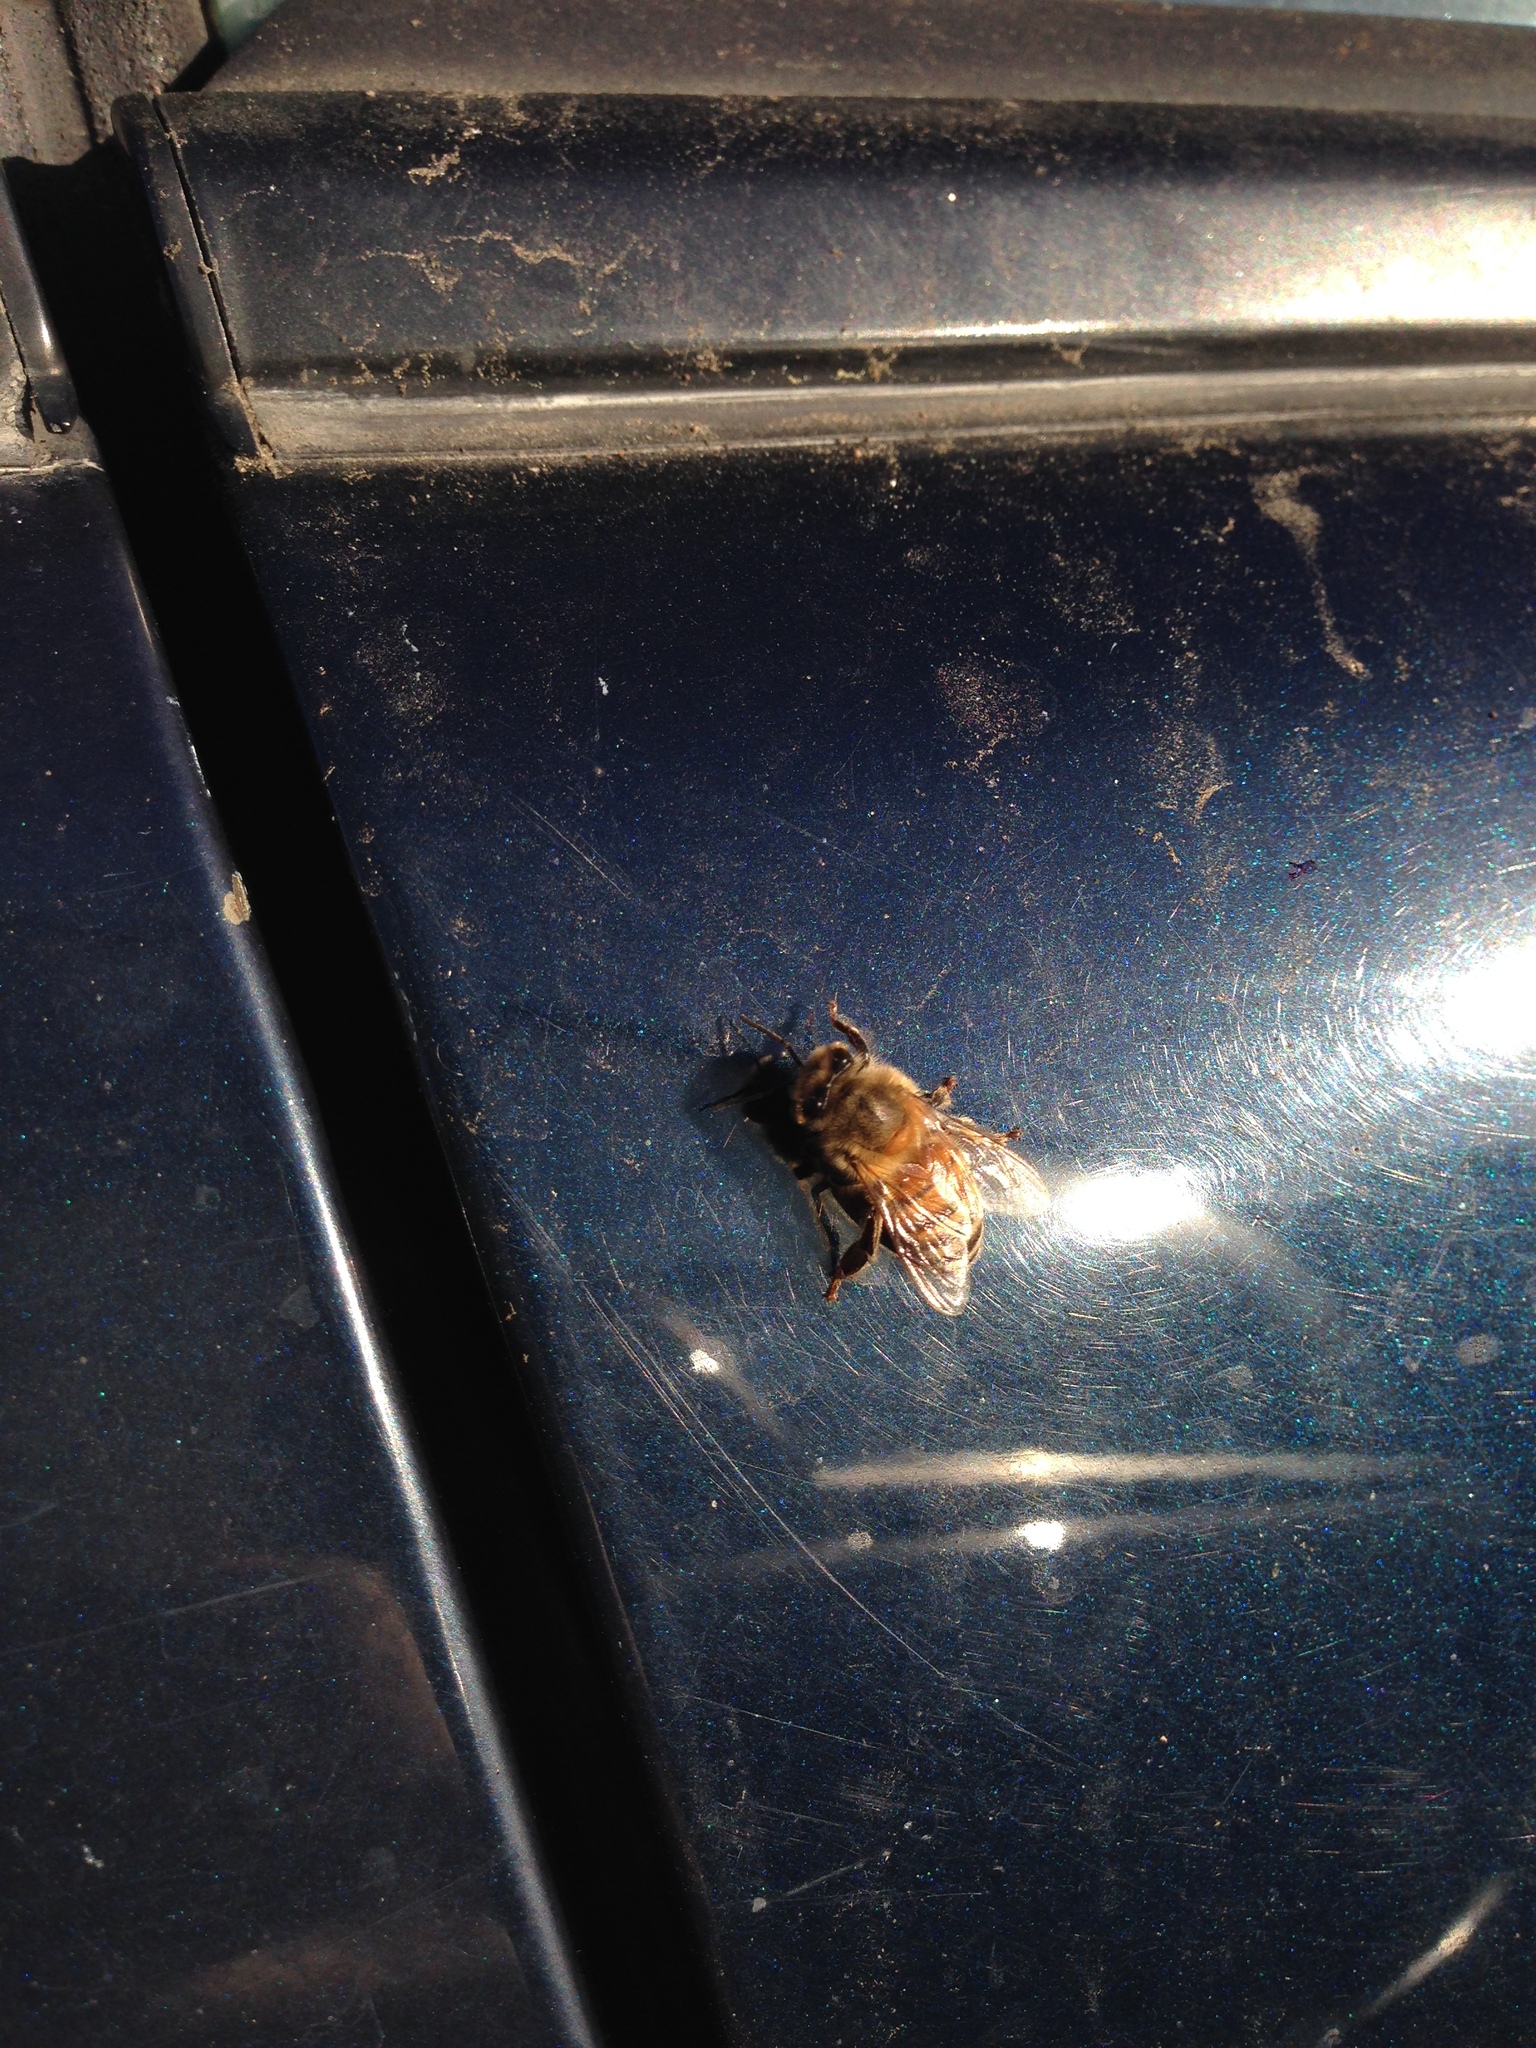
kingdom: Animalia
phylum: Arthropoda
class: Insecta
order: Hymenoptera
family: Apidae
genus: Apis
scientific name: Apis mellifera
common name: Honey bee
